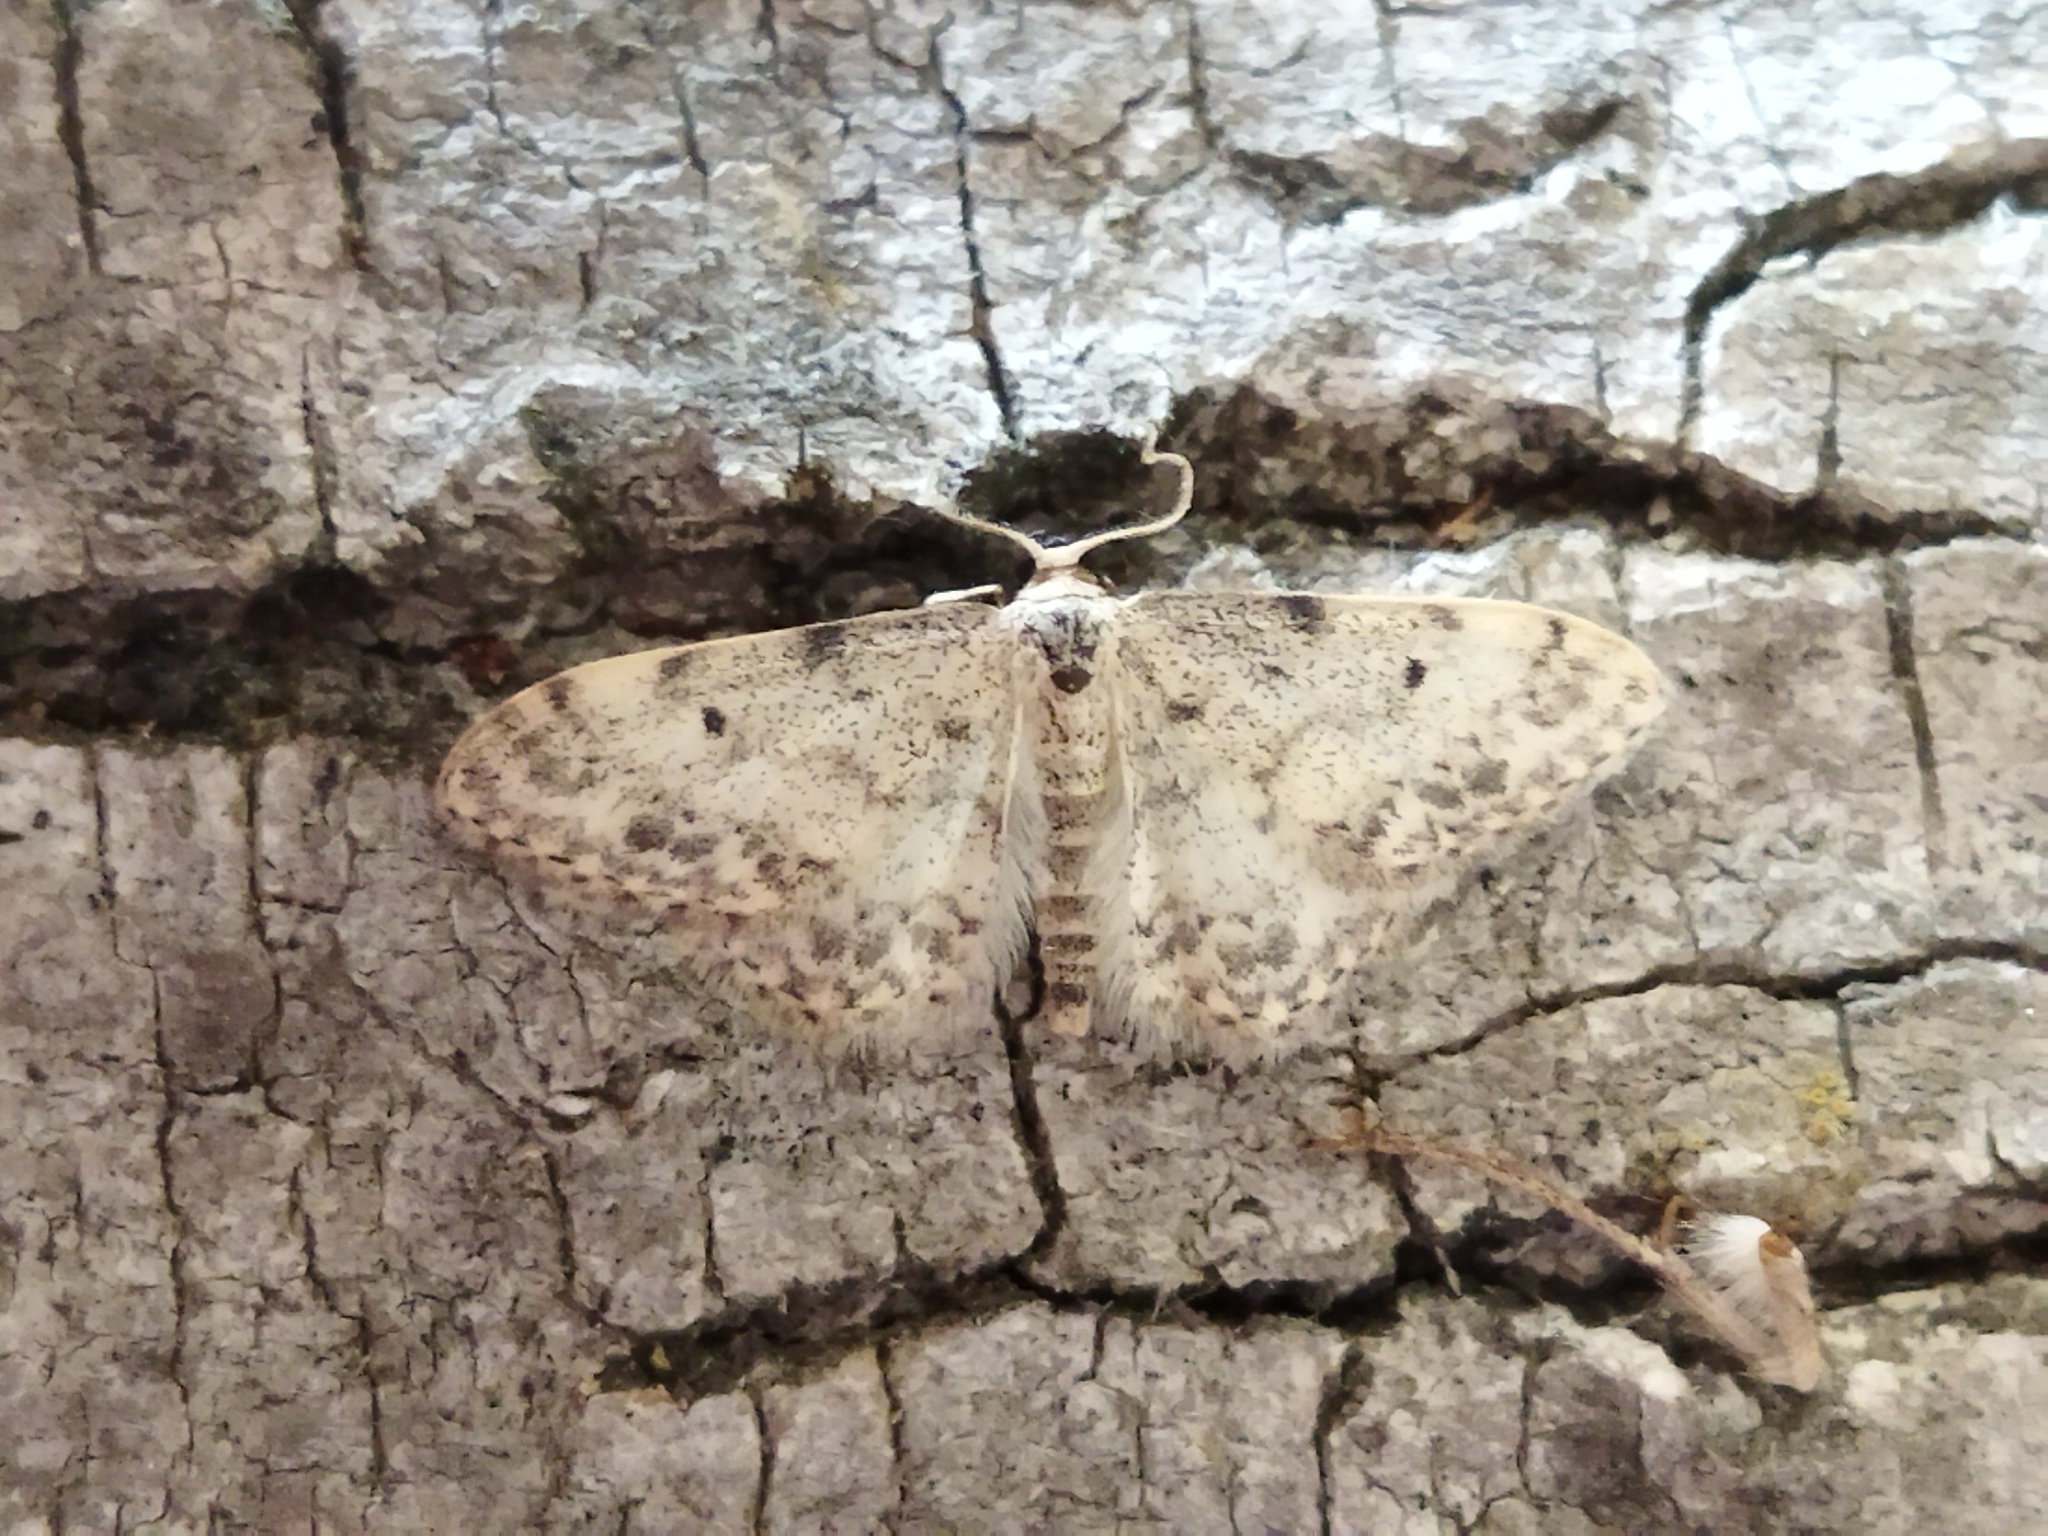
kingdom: Animalia
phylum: Arthropoda
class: Insecta
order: Lepidoptera
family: Geometridae
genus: Idaea
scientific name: Idaea camparia
